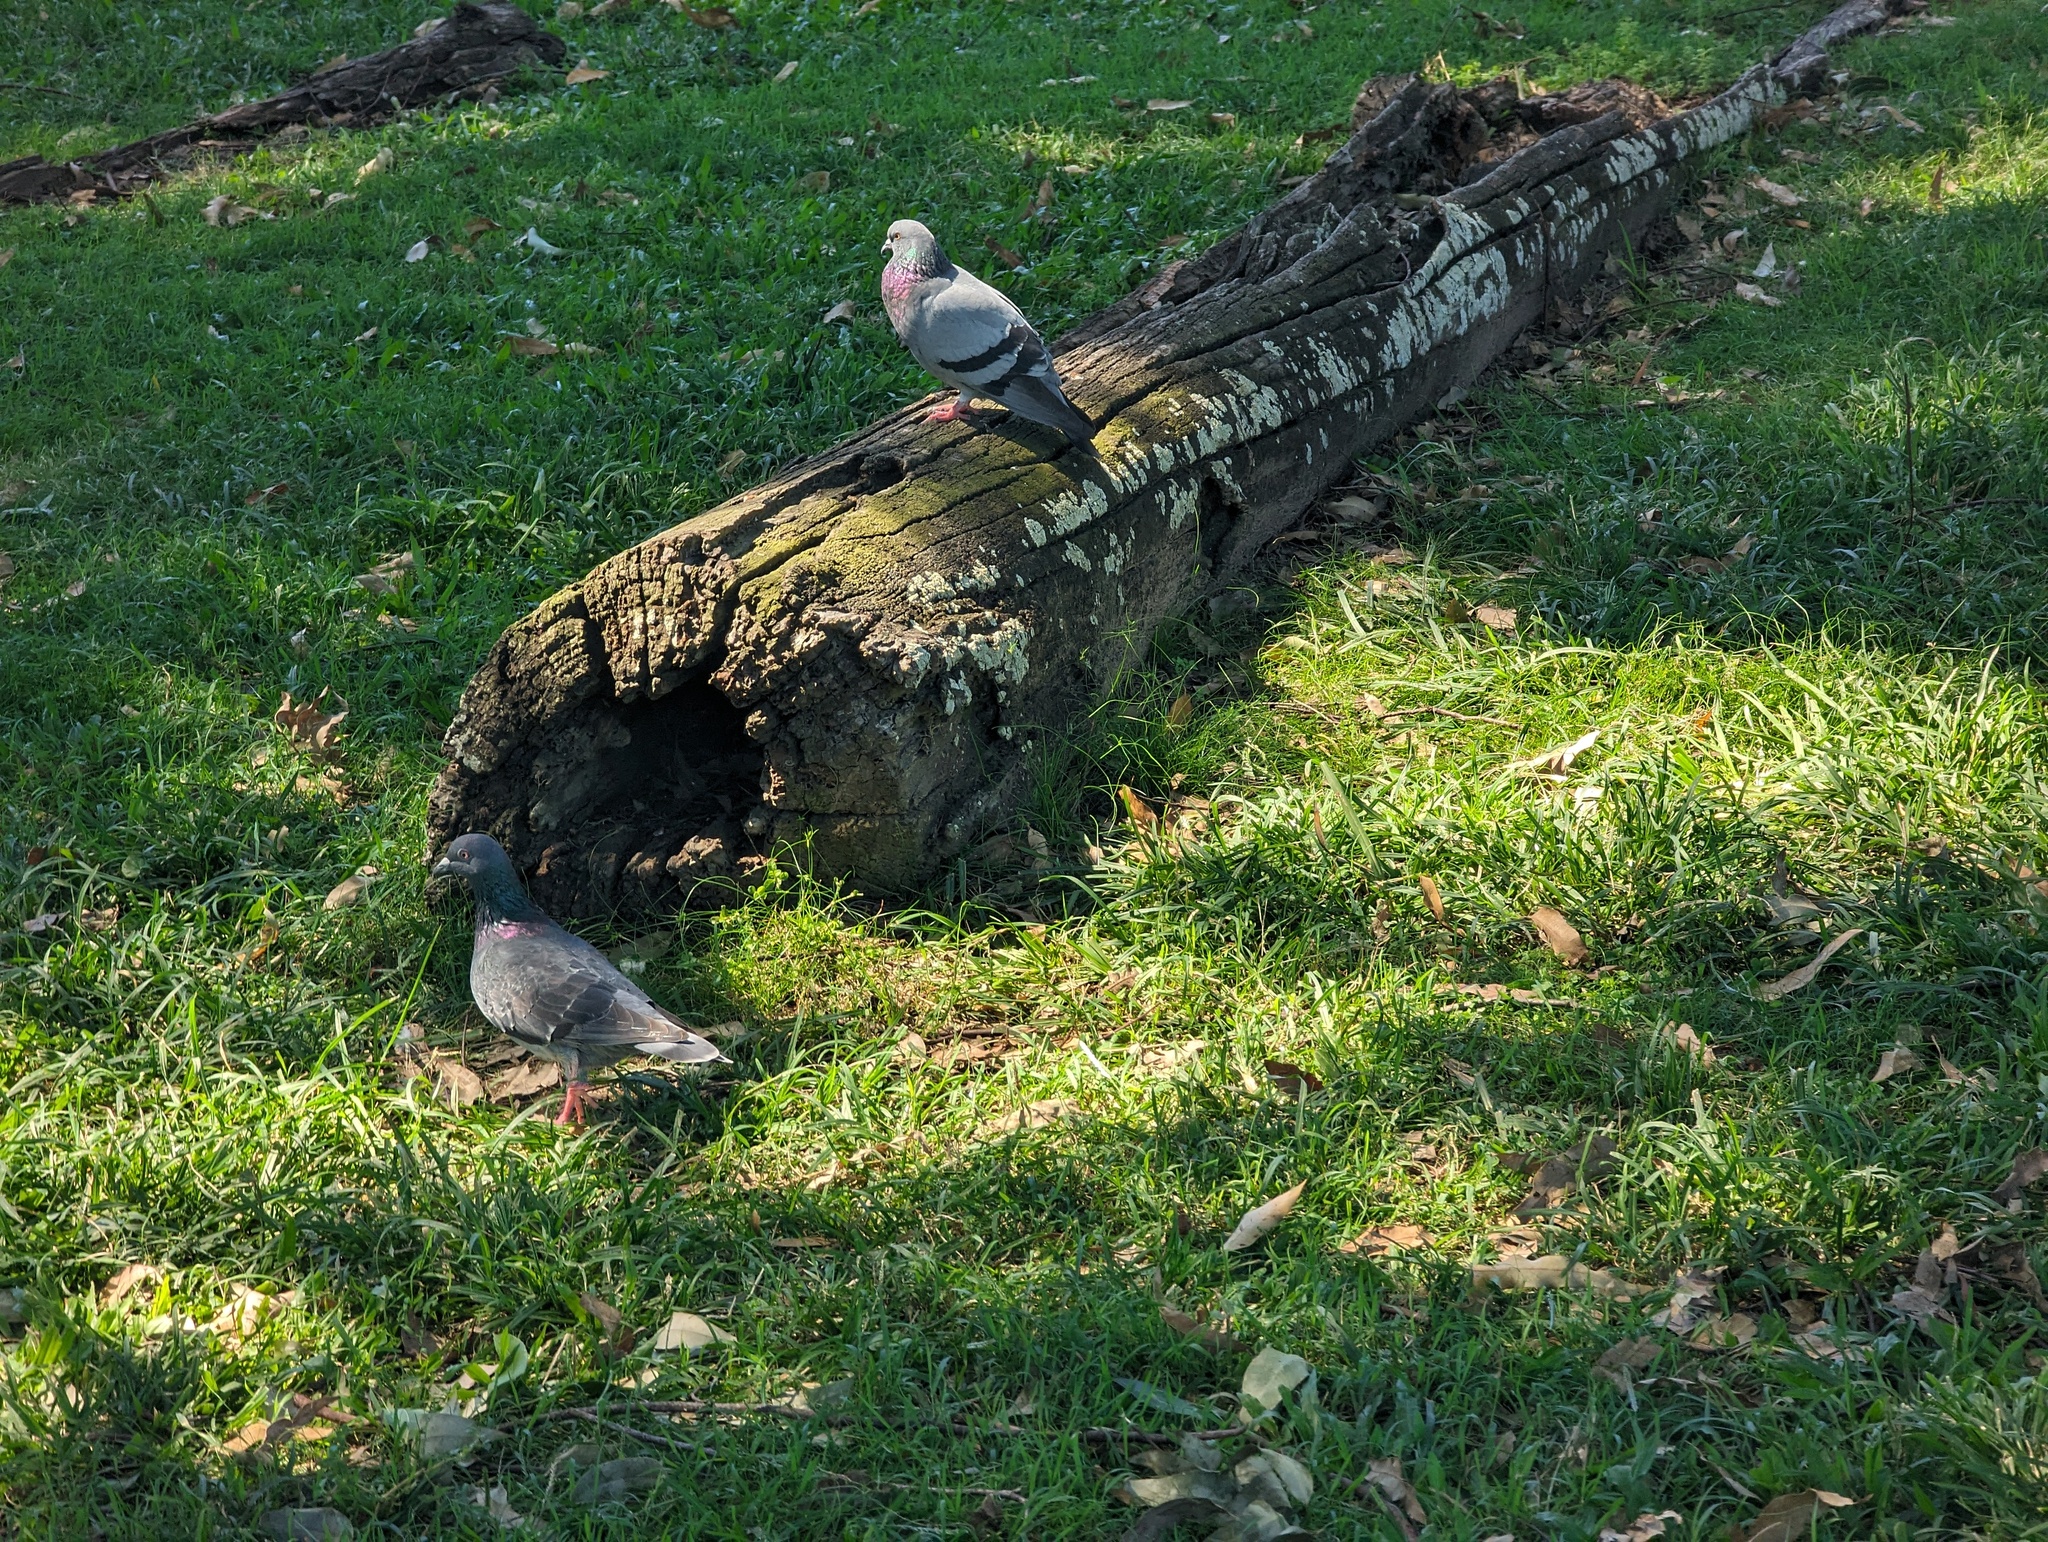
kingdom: Animalia
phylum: Chordata
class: Aves
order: Columbiformes
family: Columbidae
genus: Columba
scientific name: Columba livia
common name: Rock pigeon
